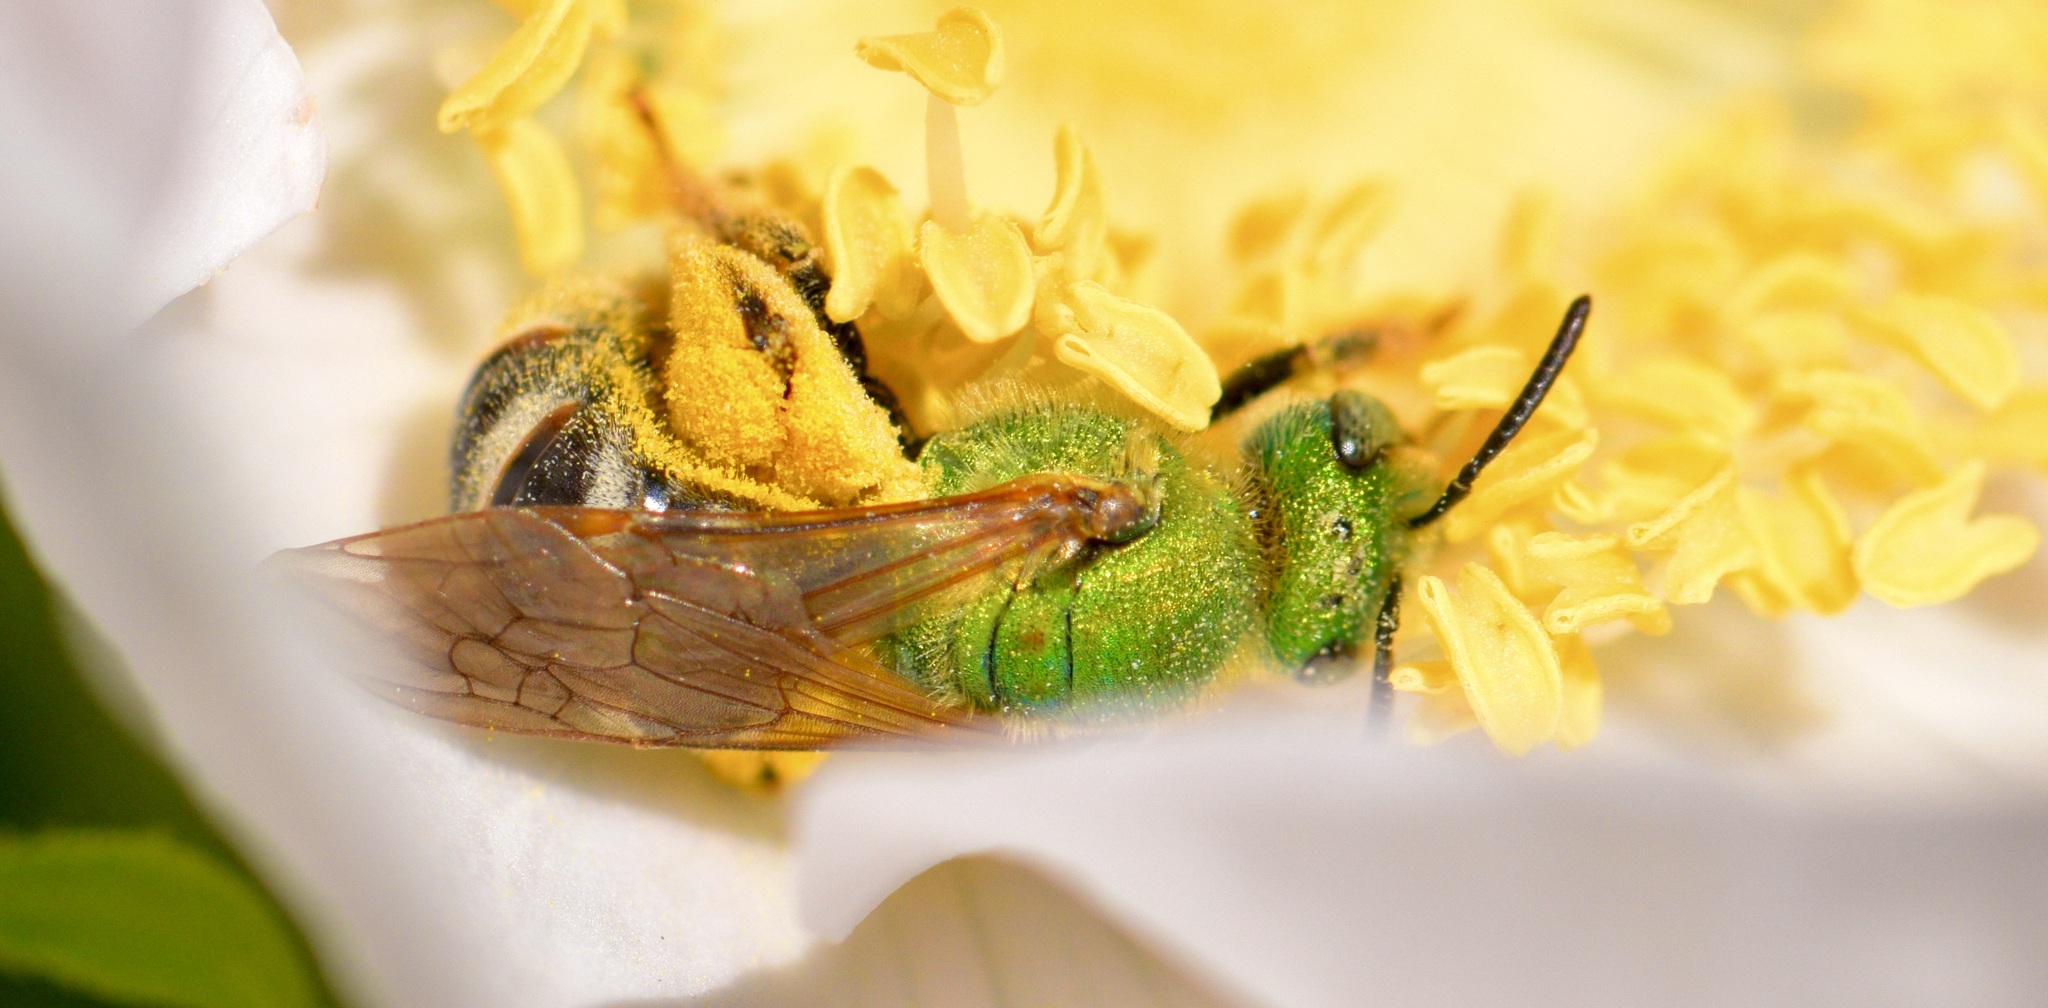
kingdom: Animalia
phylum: Arthropoda
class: Insecta
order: Hymenoptera
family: Halictidae
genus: Agapostemon
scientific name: Agapostemon virescens
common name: Bicolored striped sweat bee
